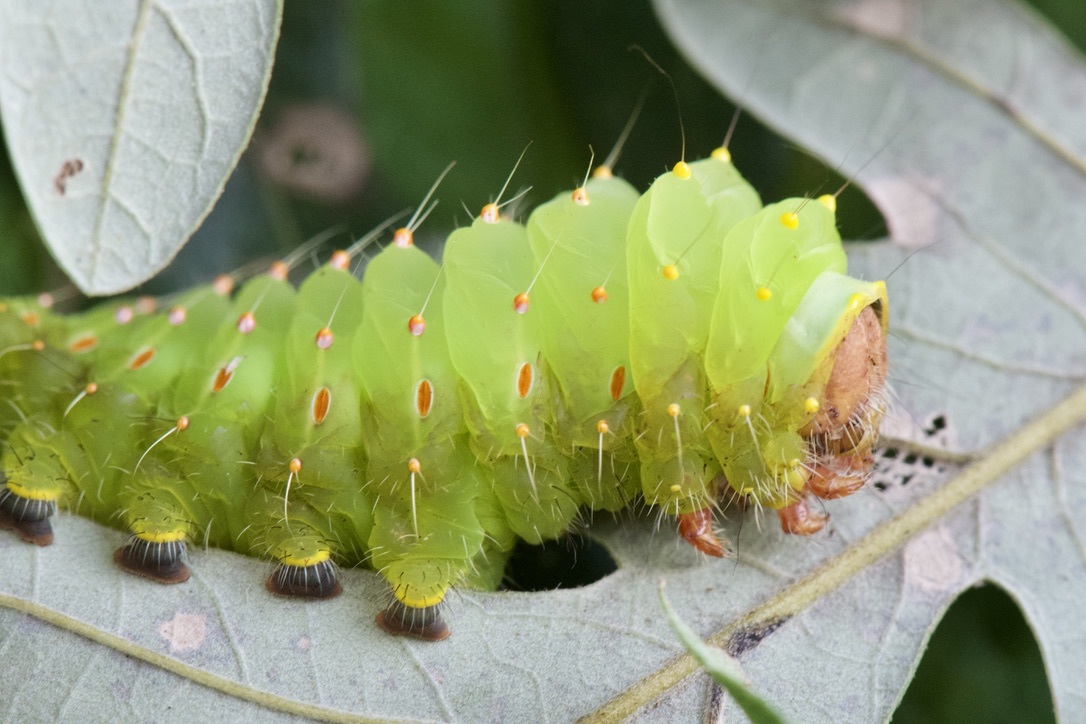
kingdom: Animalia
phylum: Arthropoda
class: Insecta
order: Lepidoptera
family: Saturniidae
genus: Antheraea
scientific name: Antheraea polyphemus
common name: Polyphemus moth
